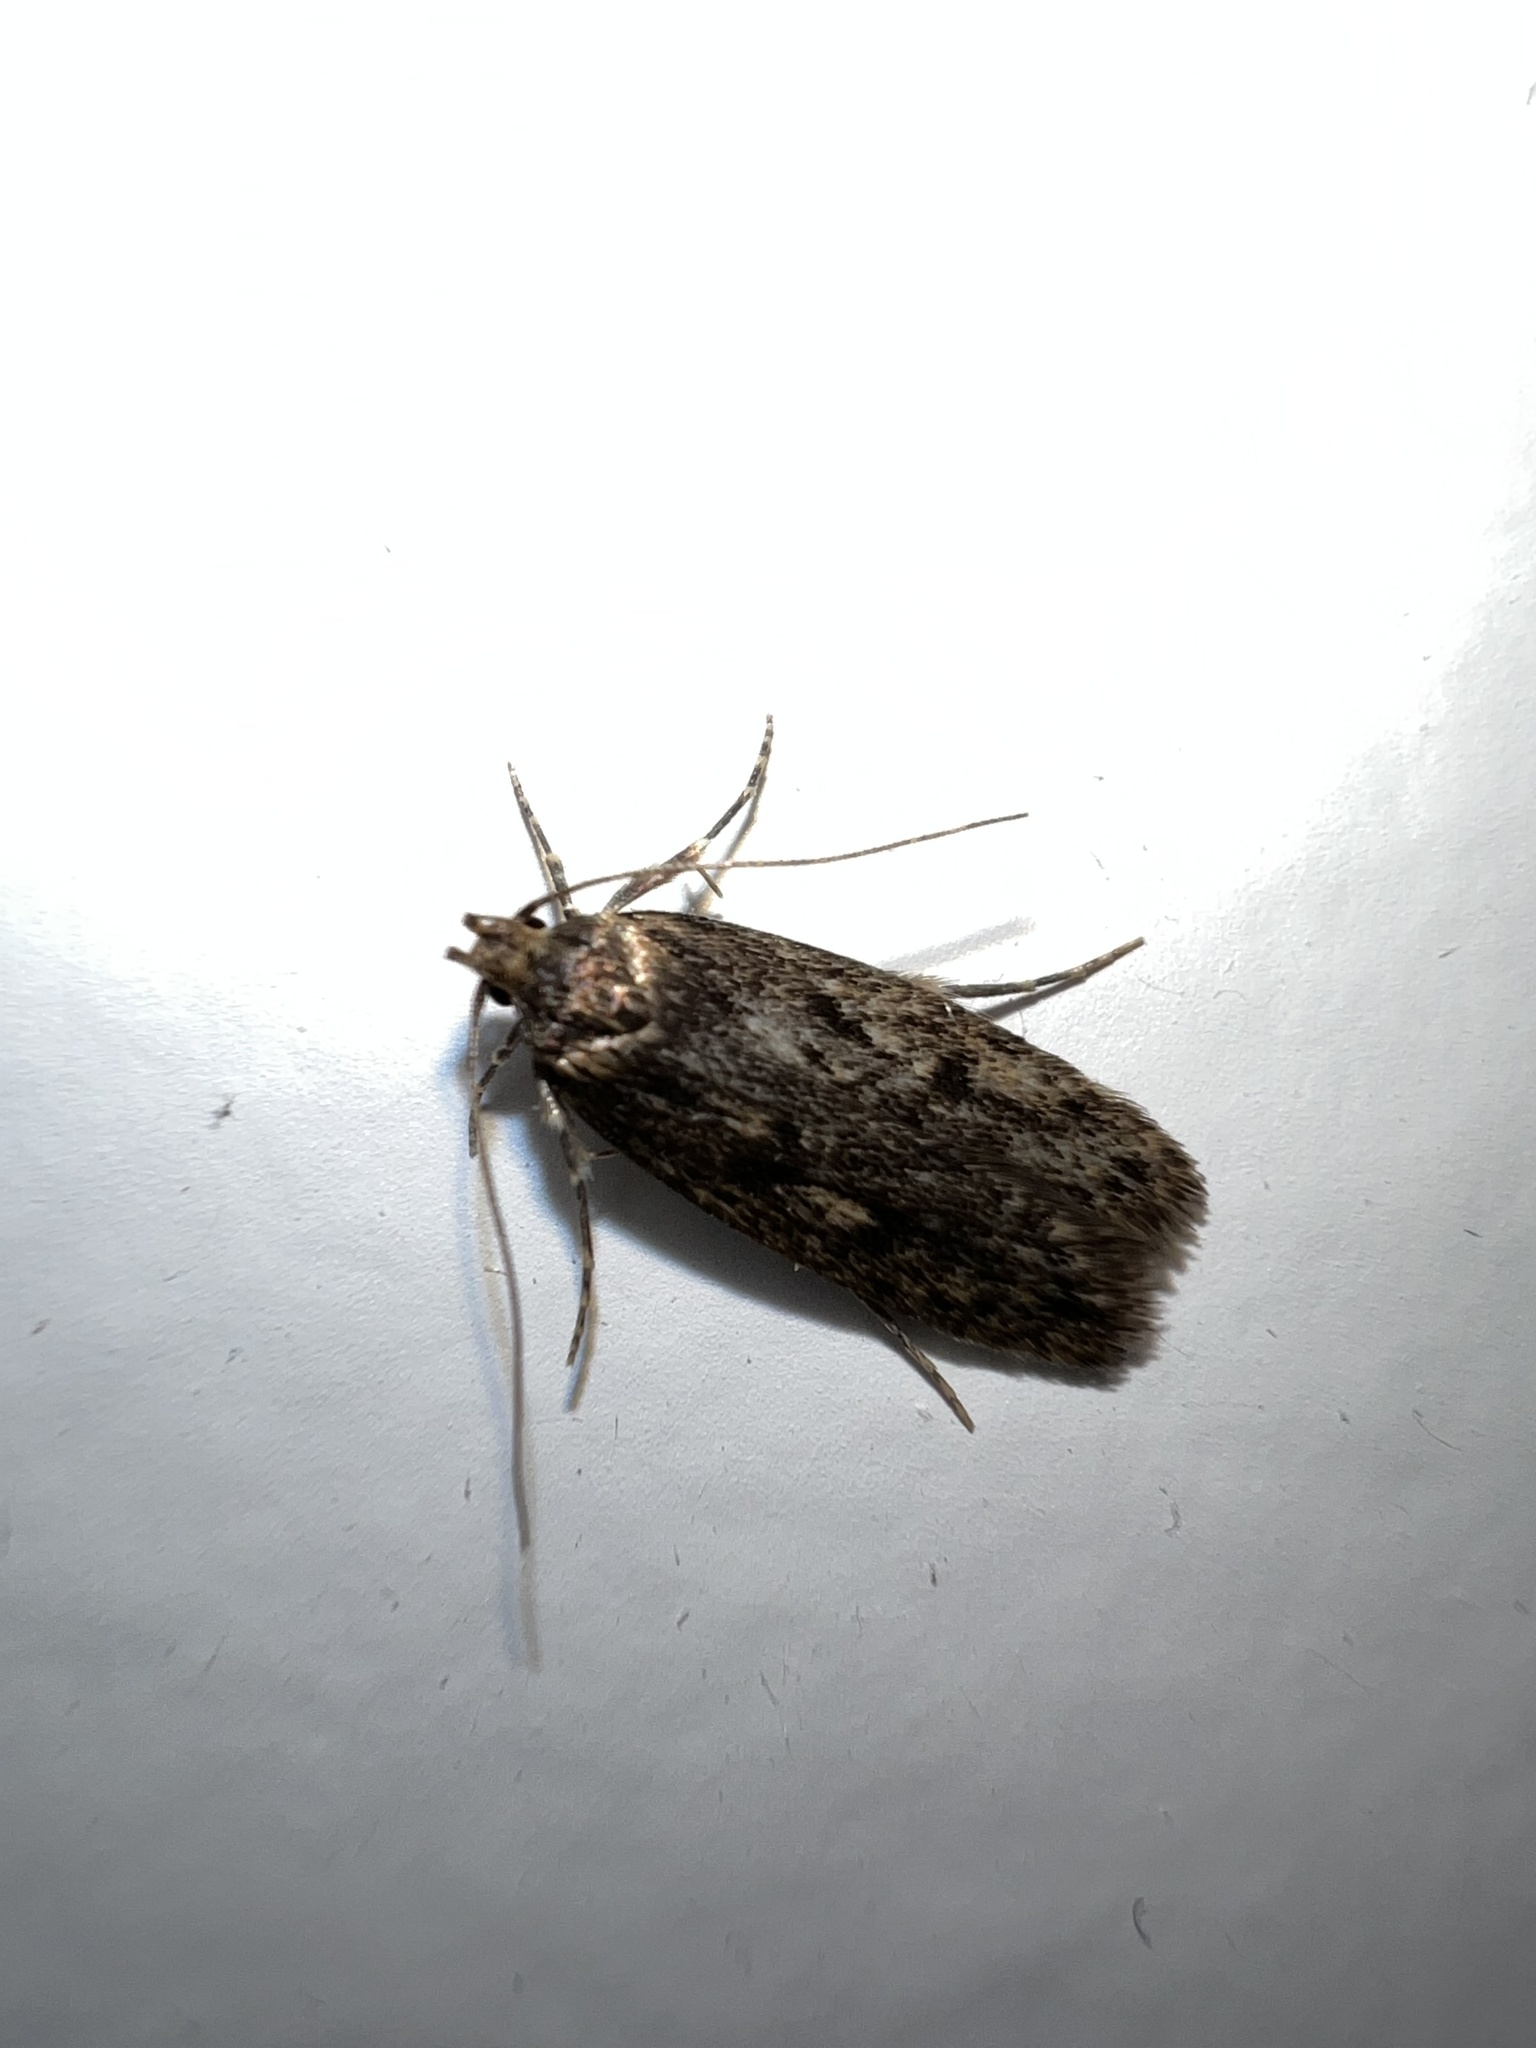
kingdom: Animalia
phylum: Arthropoda
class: Insecta
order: Lepidoptera
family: Oecophoridae
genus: Hofmannophila
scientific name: Hofmannophila pseudospretella
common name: Brown house moth
